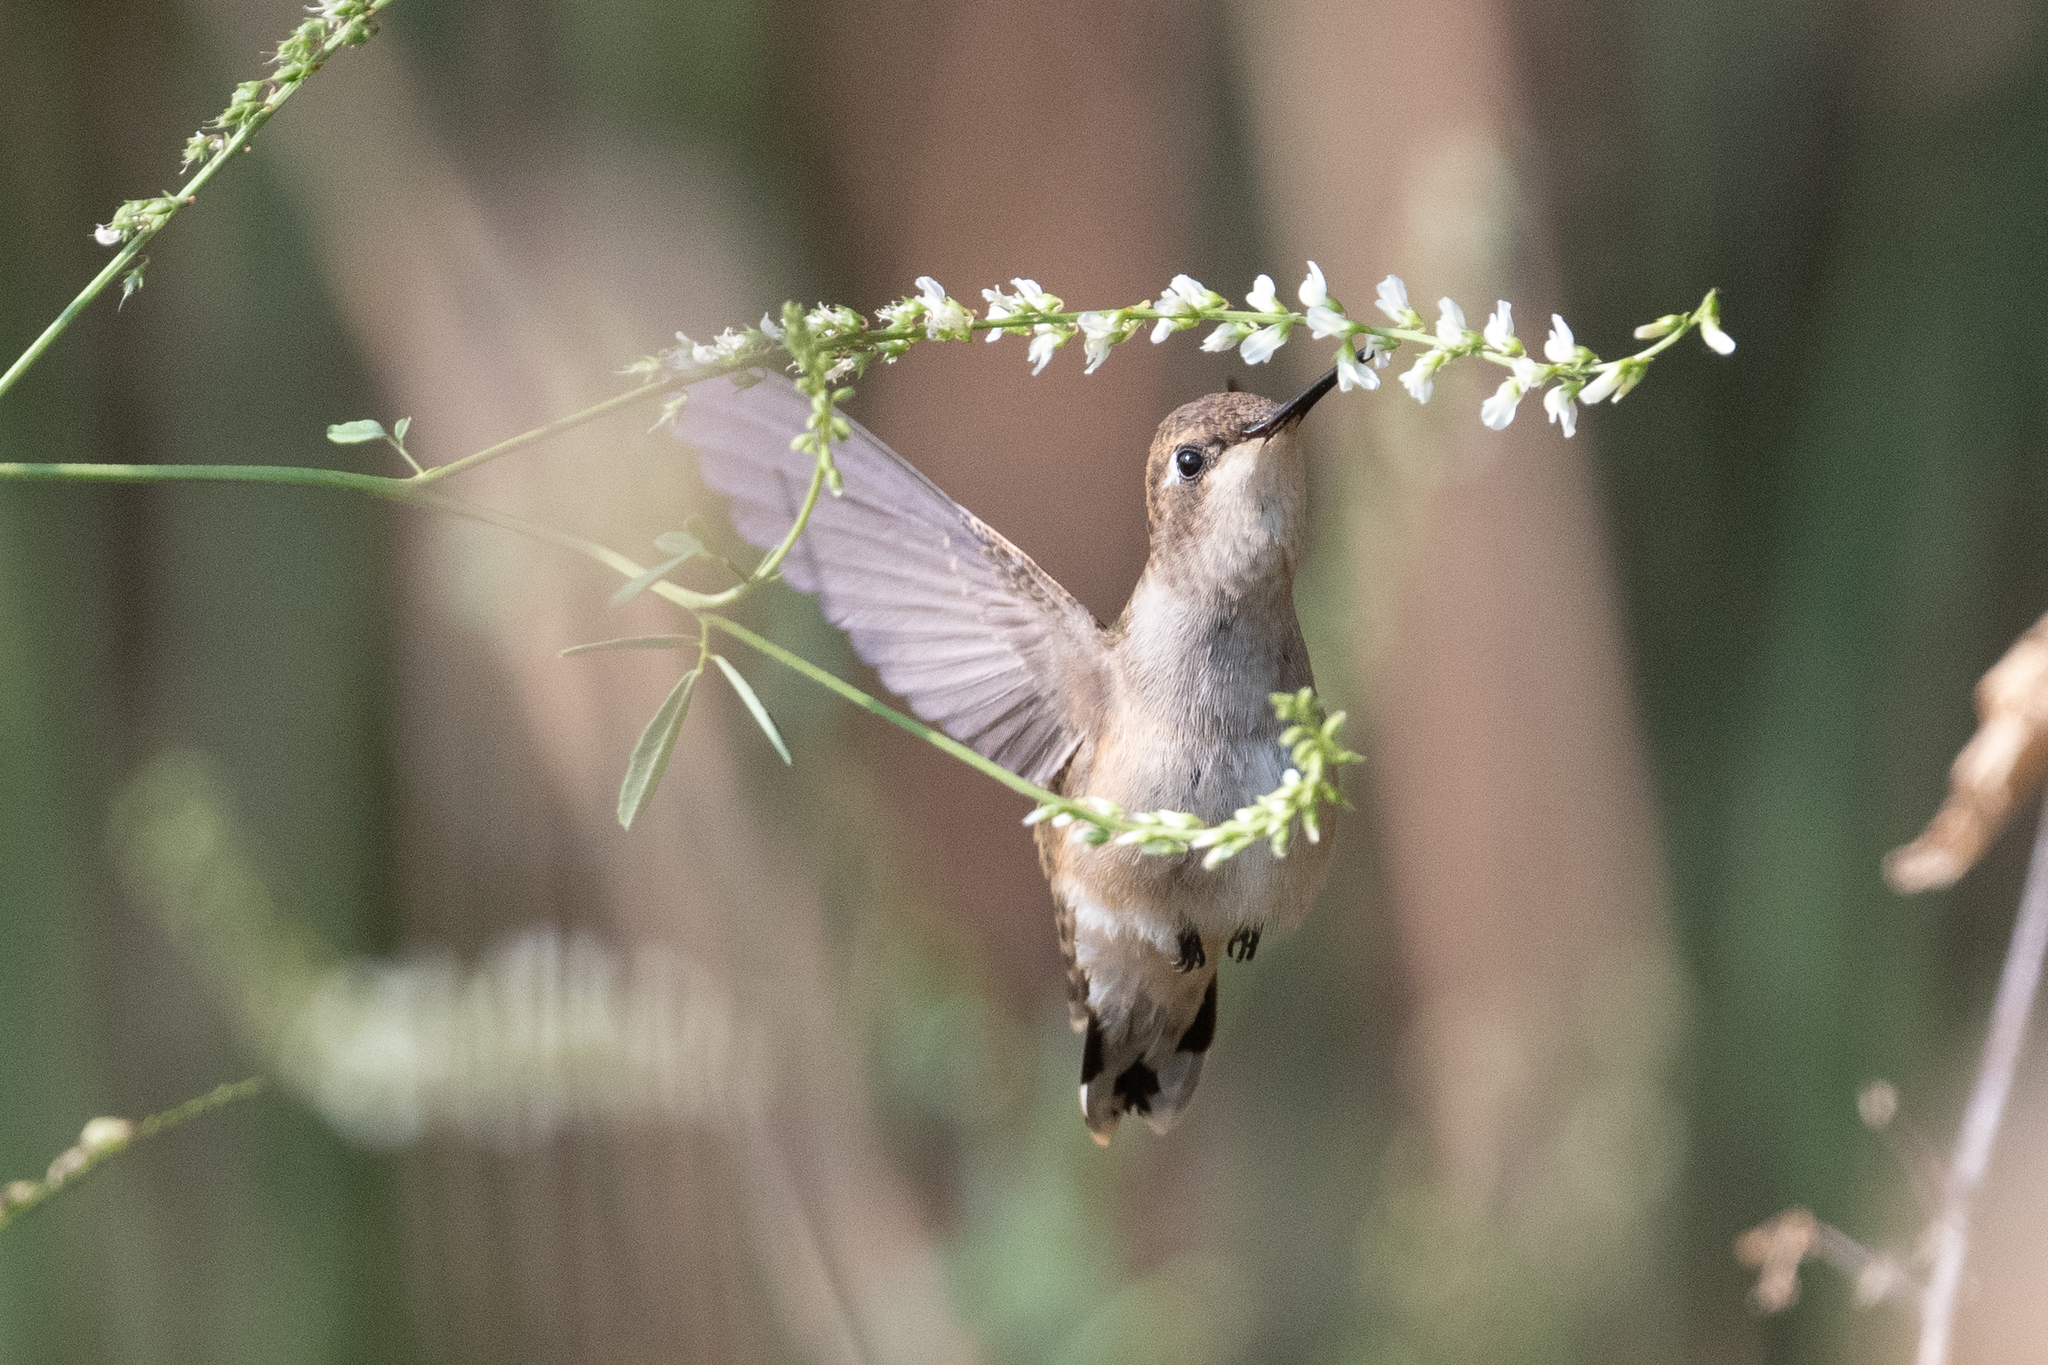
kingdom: Animalia
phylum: Chordata
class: Aves
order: Apodiformes
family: Trochilidae
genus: Archilochus
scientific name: Archilochus alexandri
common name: Black-chinned hummingbird
